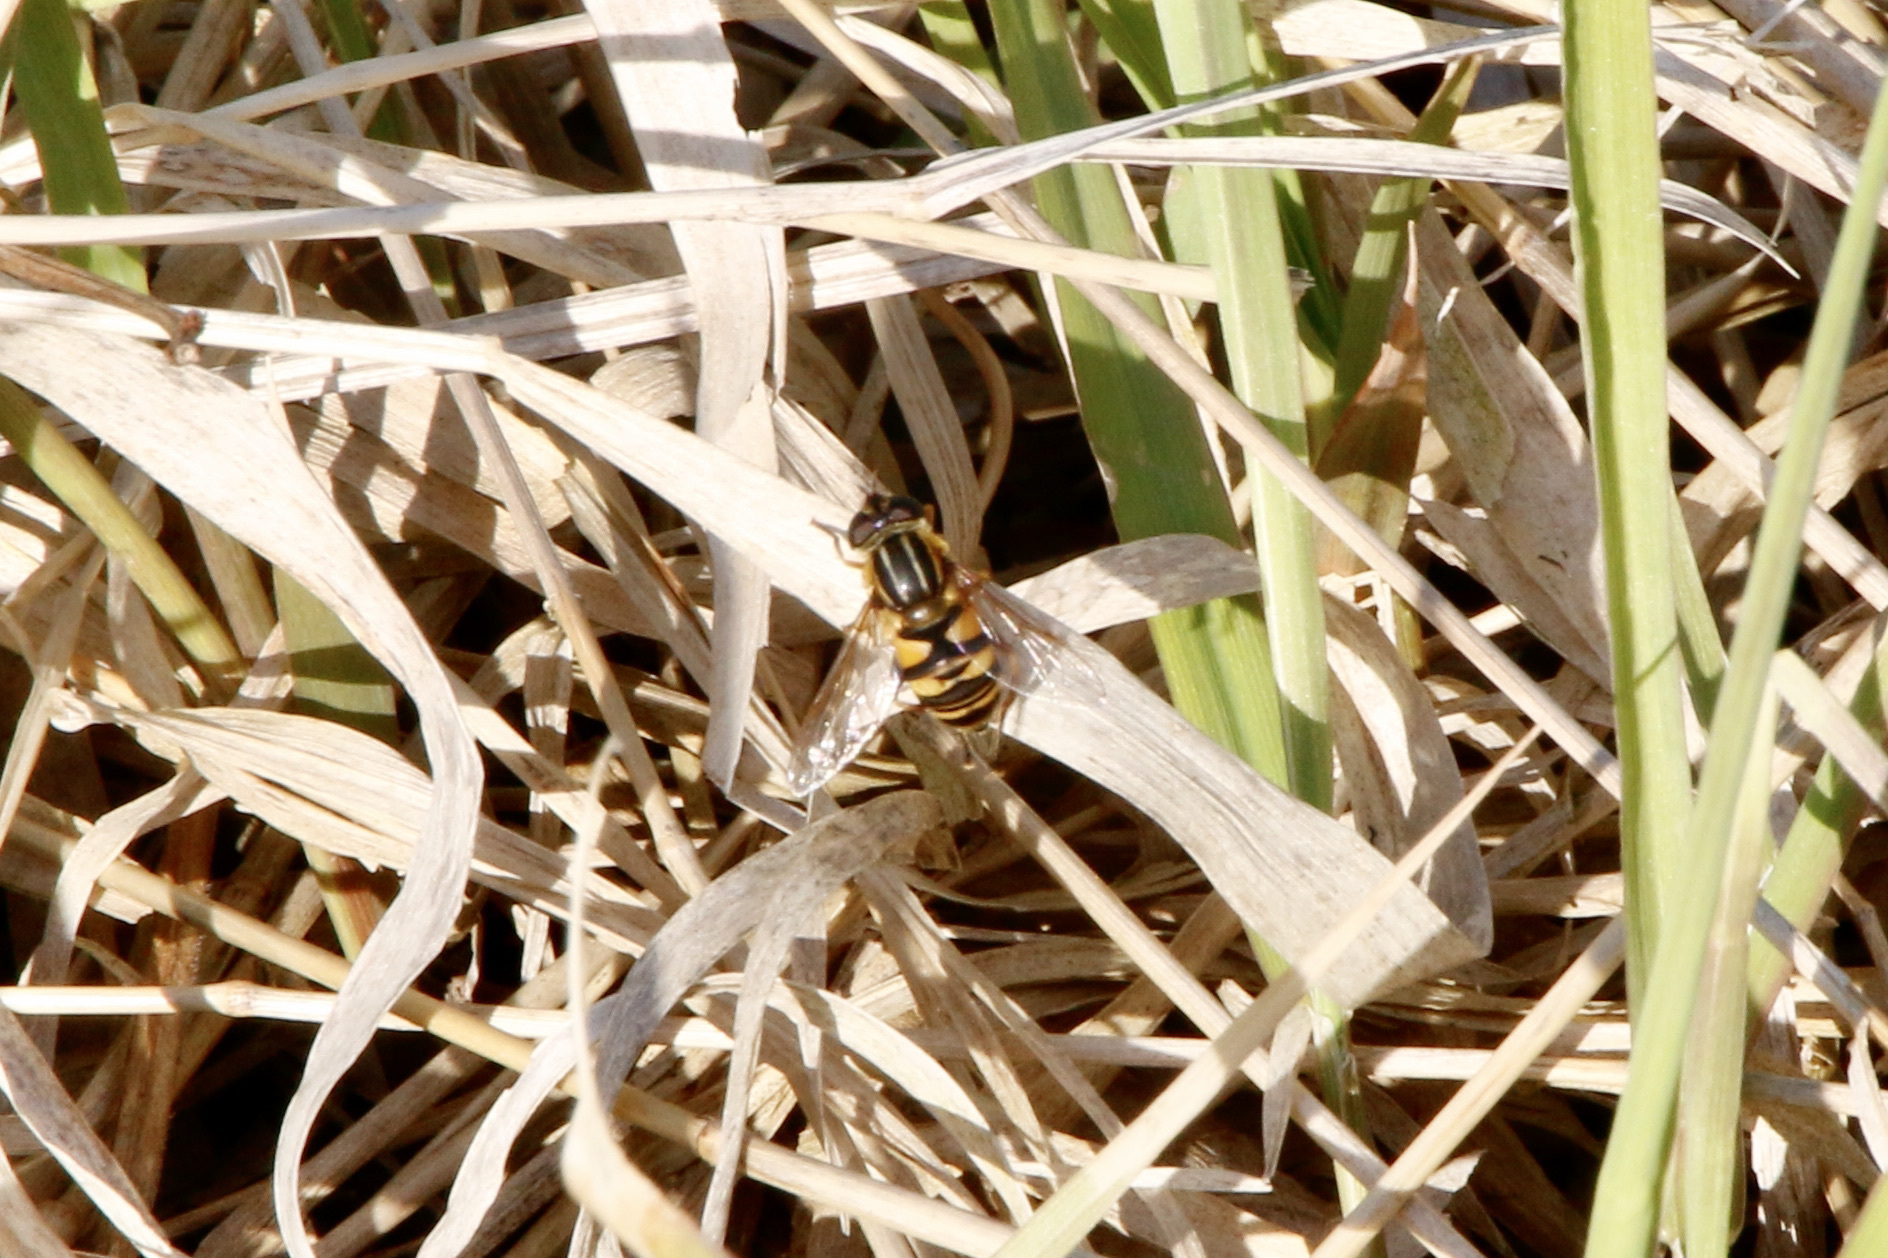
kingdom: Animalia
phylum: Arthropoda
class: Insecta
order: Diptera
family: Syrphidae
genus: Helophilus
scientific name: Helophilus fasciatus
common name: Narrow-headed marsh fly
